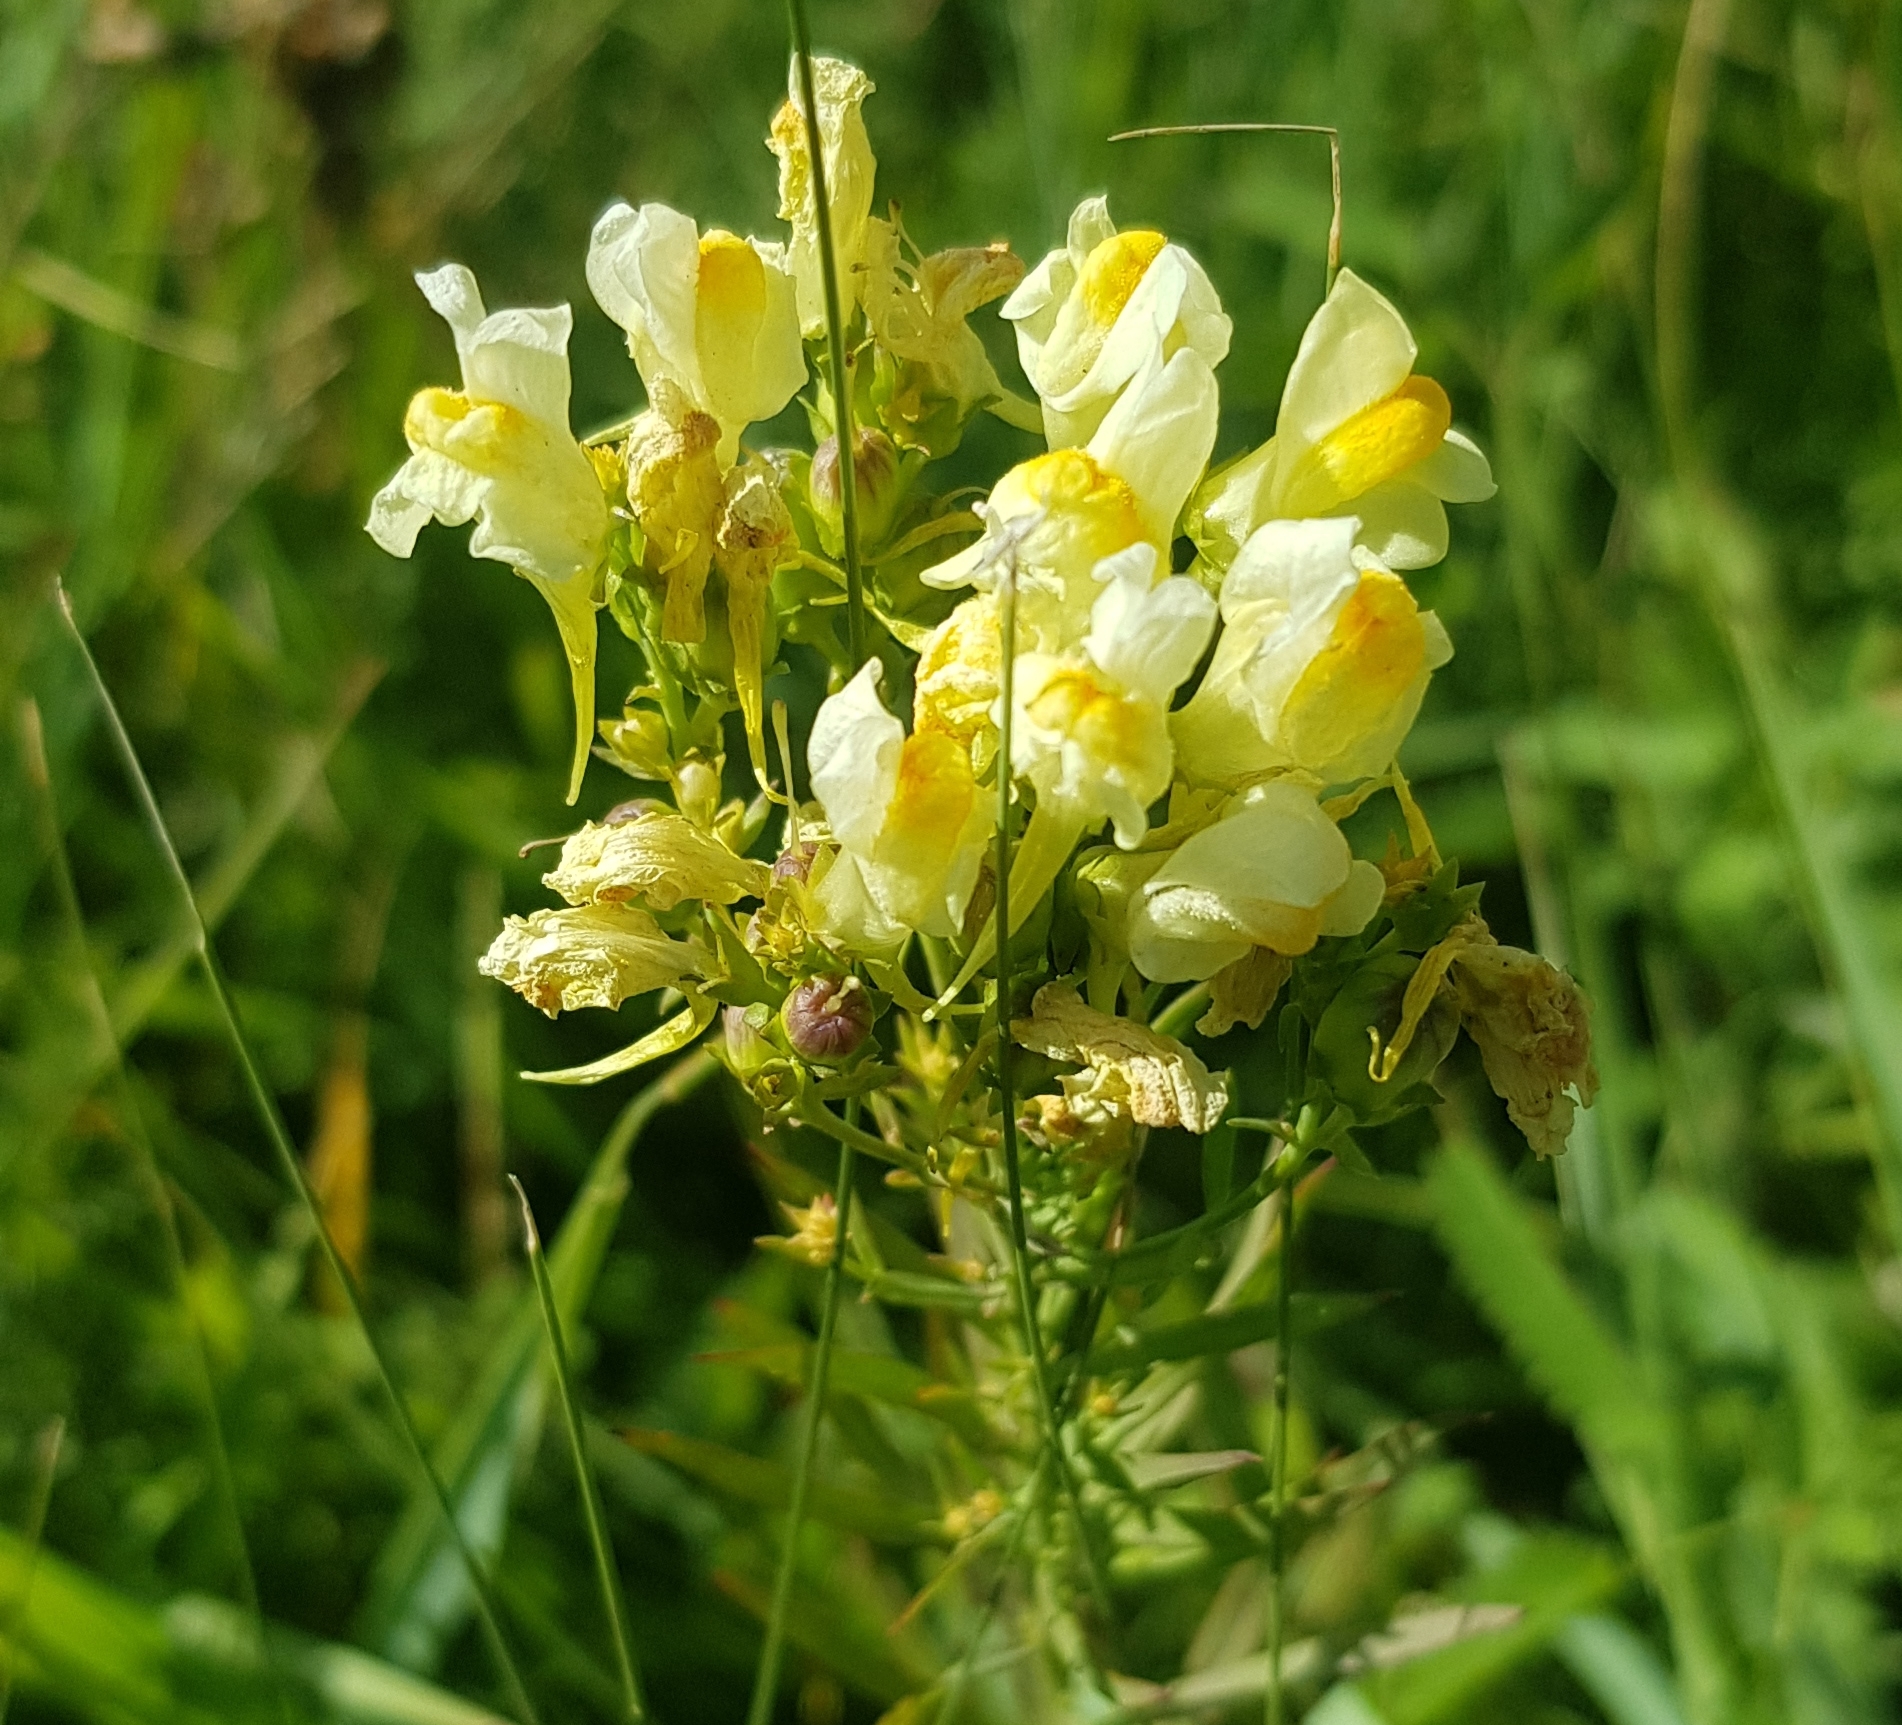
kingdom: Plantae
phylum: Tracheophyta
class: Magnoliopsida
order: Lamiales
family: Plantaginaceae
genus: Linaria
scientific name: Linaria buriatica
